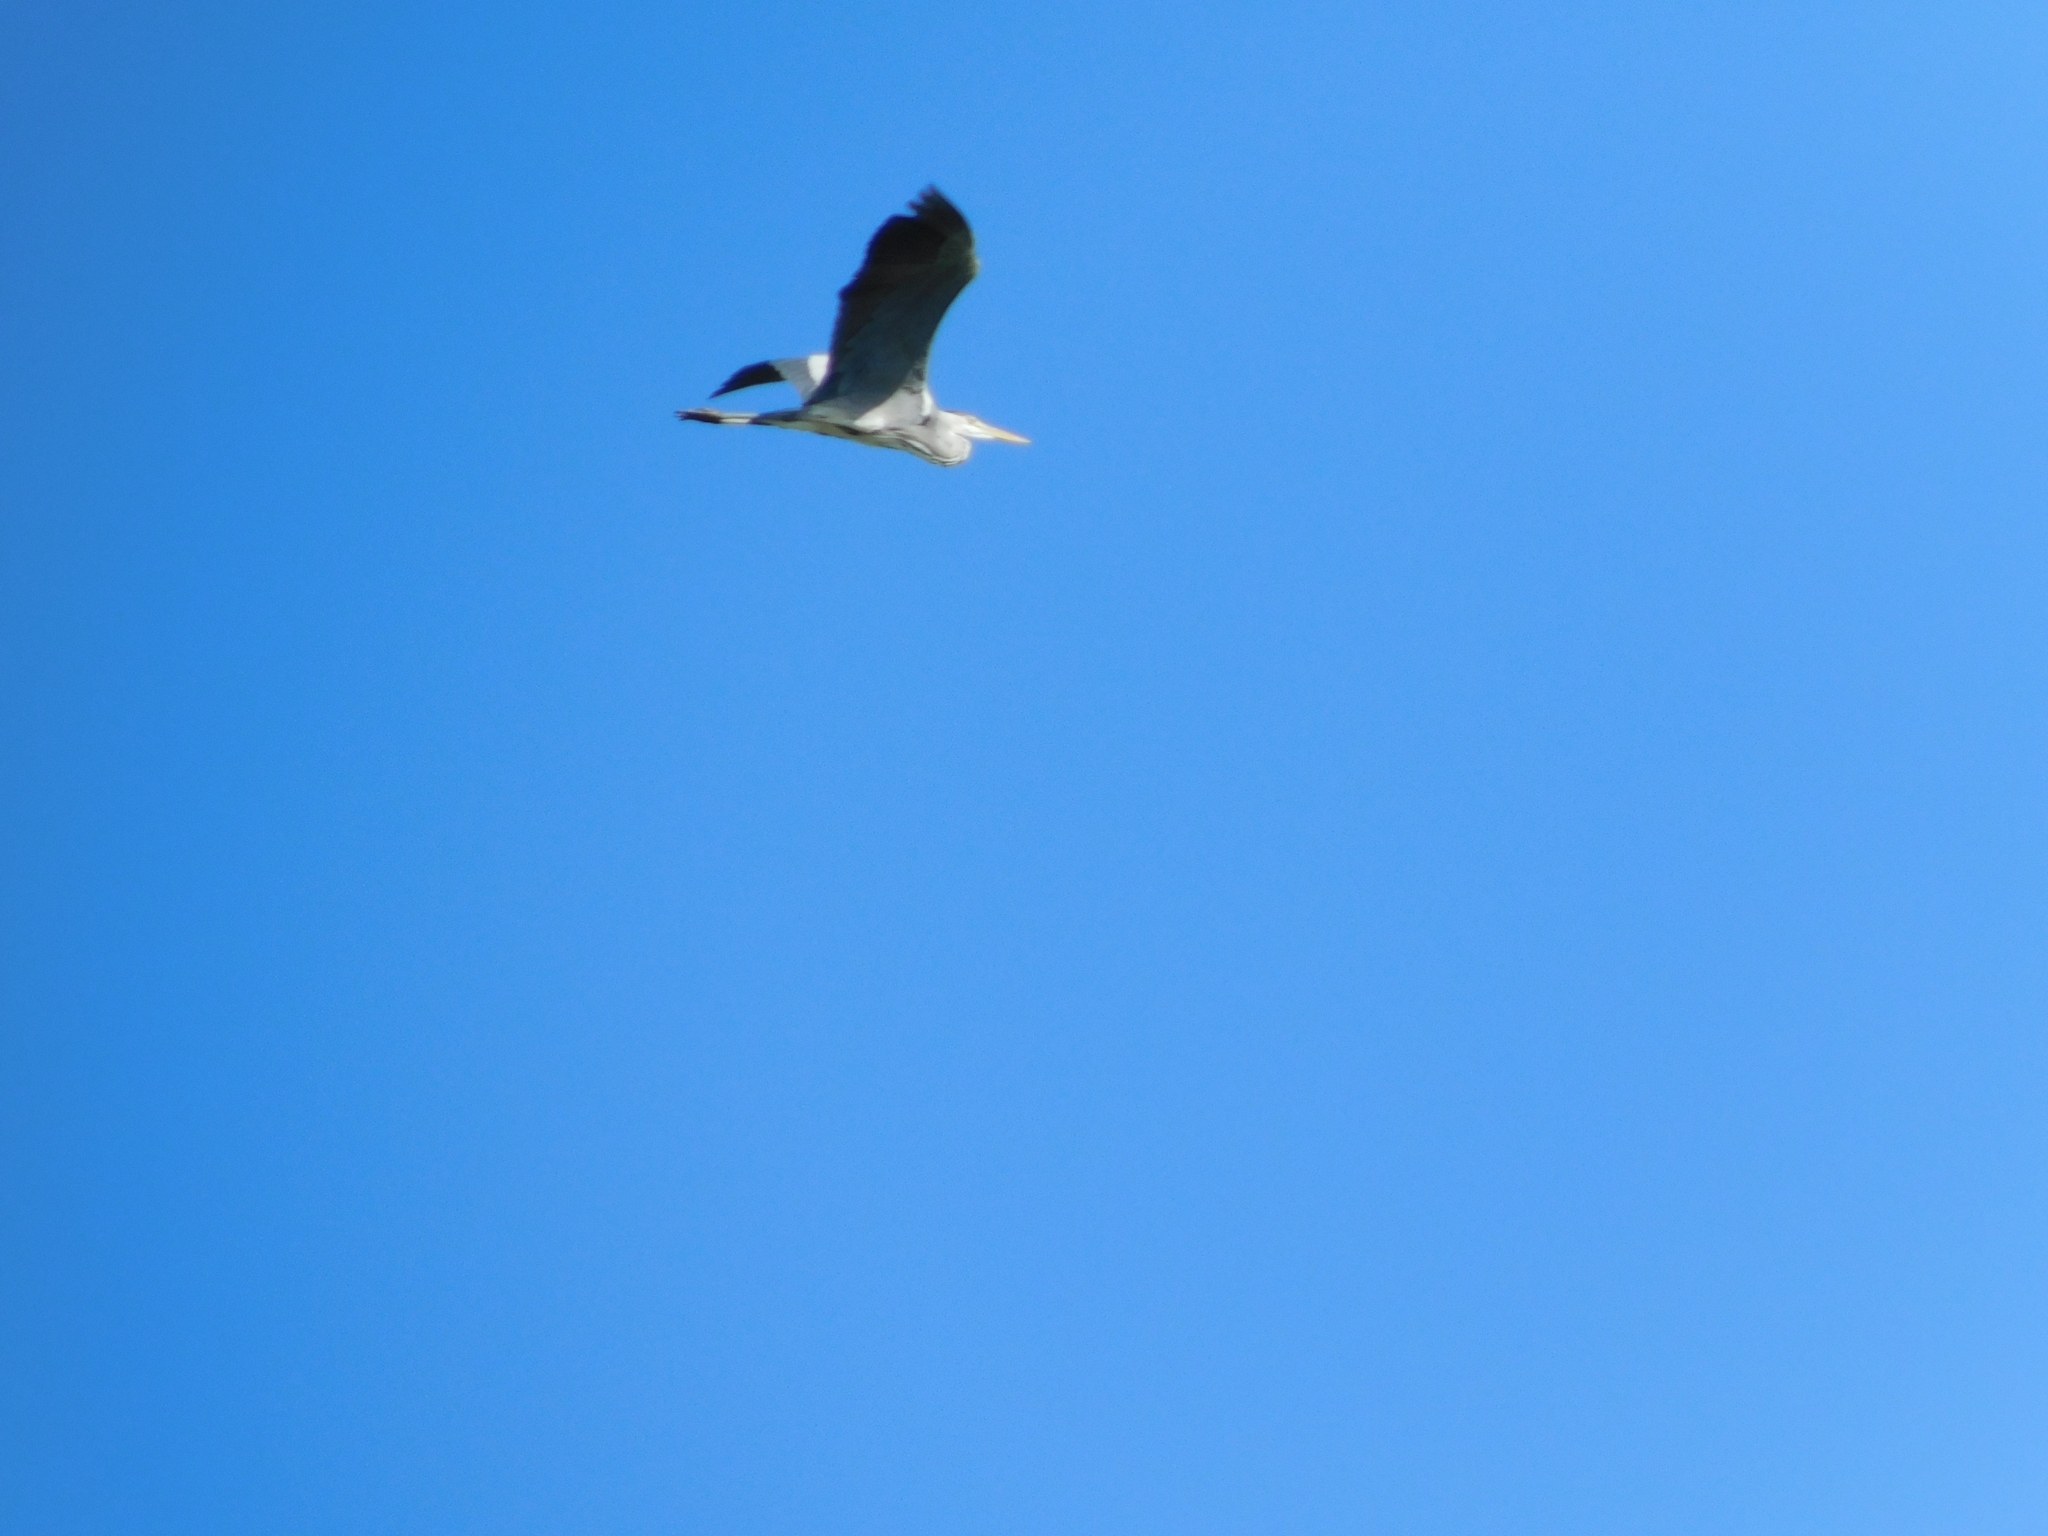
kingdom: Animalia
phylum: Chordata
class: Aves
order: Pelecaniformes
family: Ardeidae
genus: Ardea
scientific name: Ardea cinerea
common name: Grey heron
